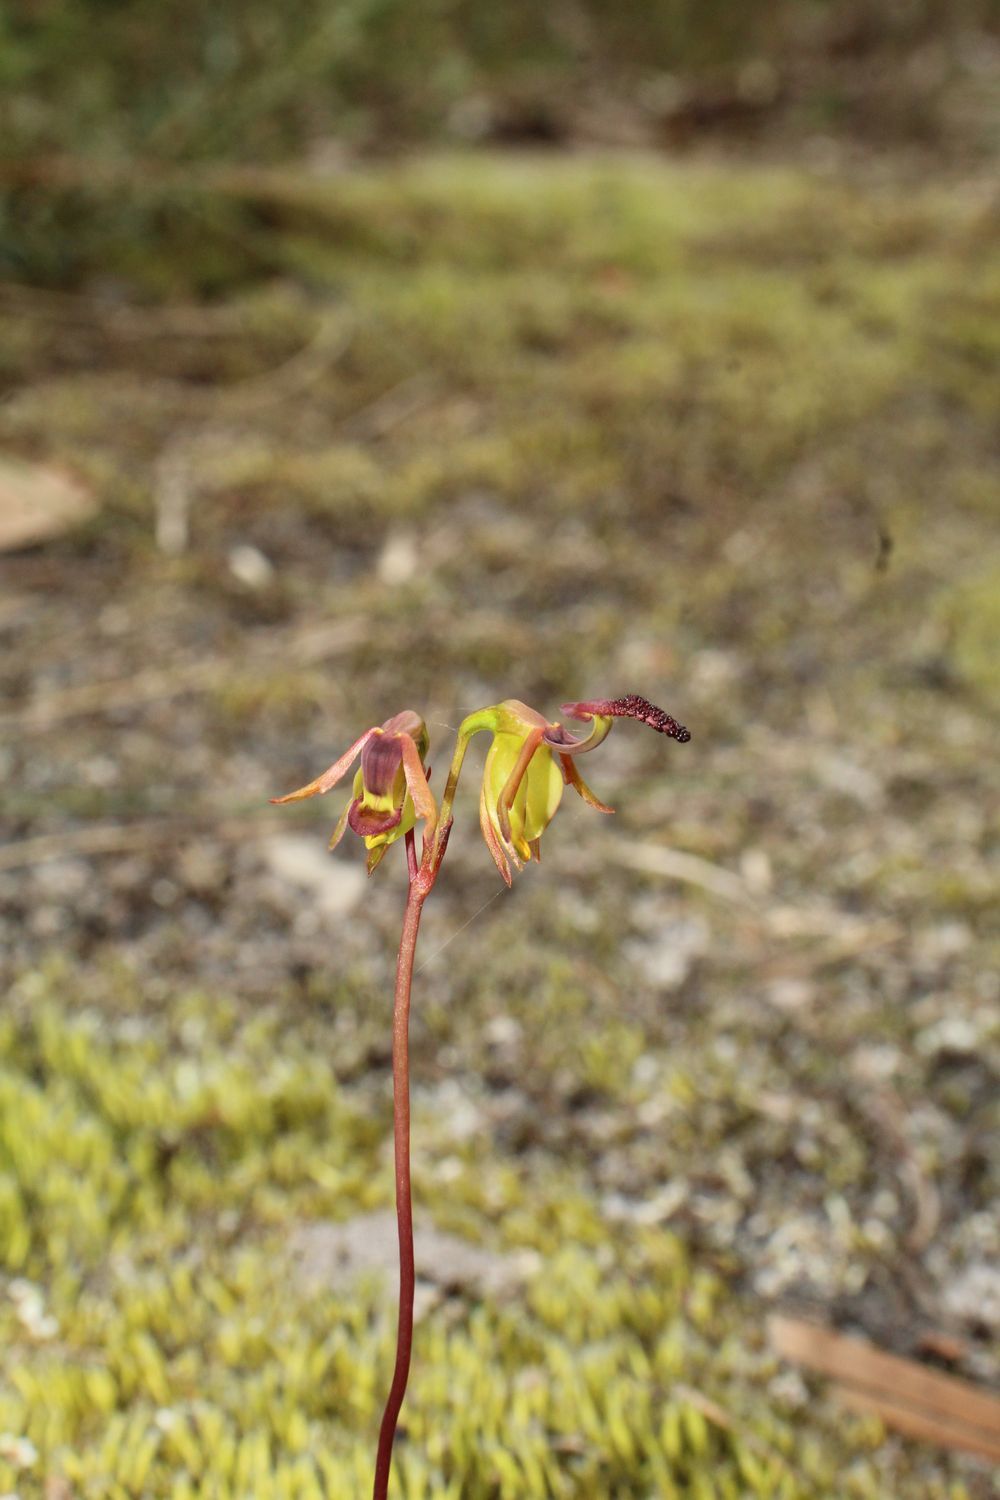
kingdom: Plantae
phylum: Tracheophyta
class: Liliopsida
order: Asparagales
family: Orchidaceae
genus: Caleana
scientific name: Caleana nigrita
